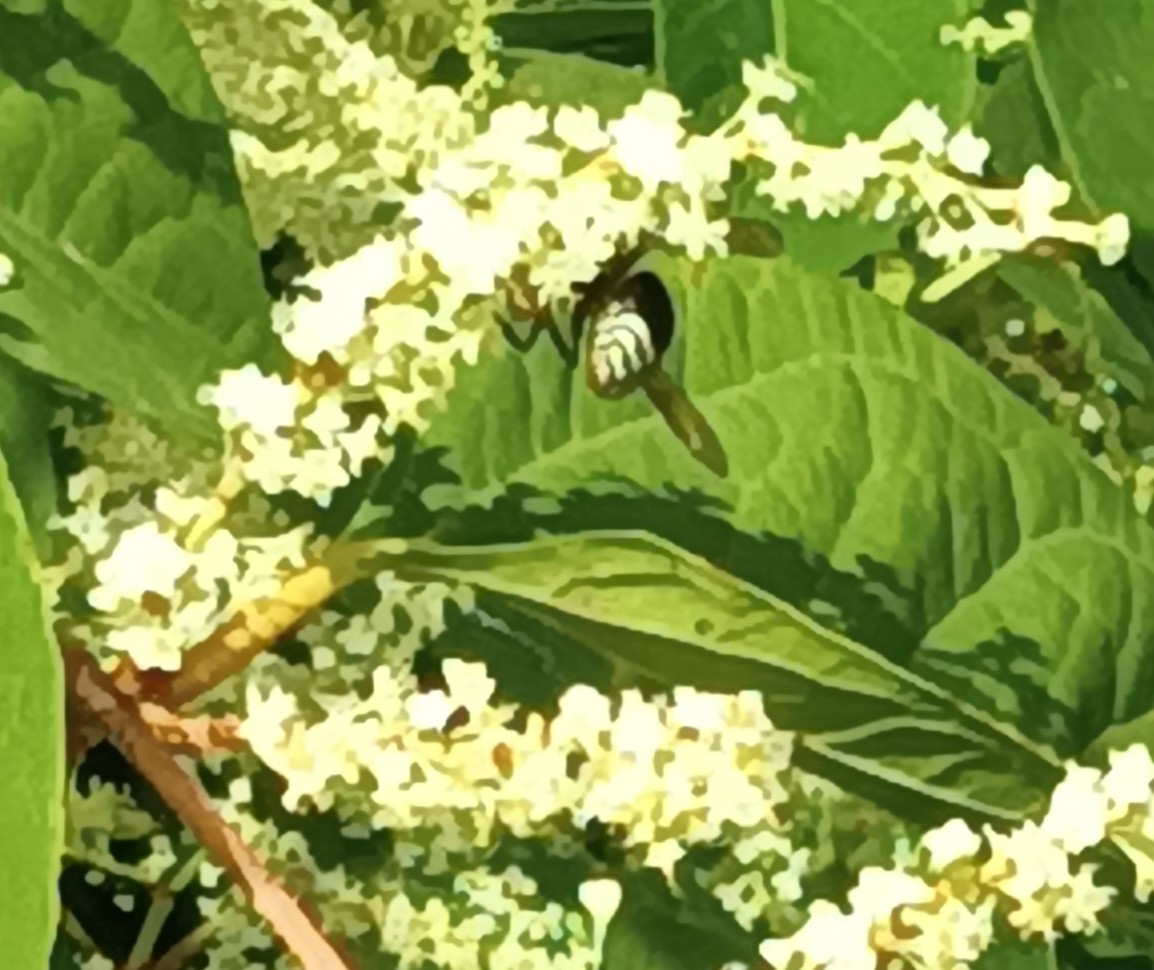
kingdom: Animalia
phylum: Arthropoda
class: Insecta
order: Hymenoptera
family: Vespidae
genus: Dolichovespula
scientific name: Dolichovespula maculata
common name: Bald-faced hornet
